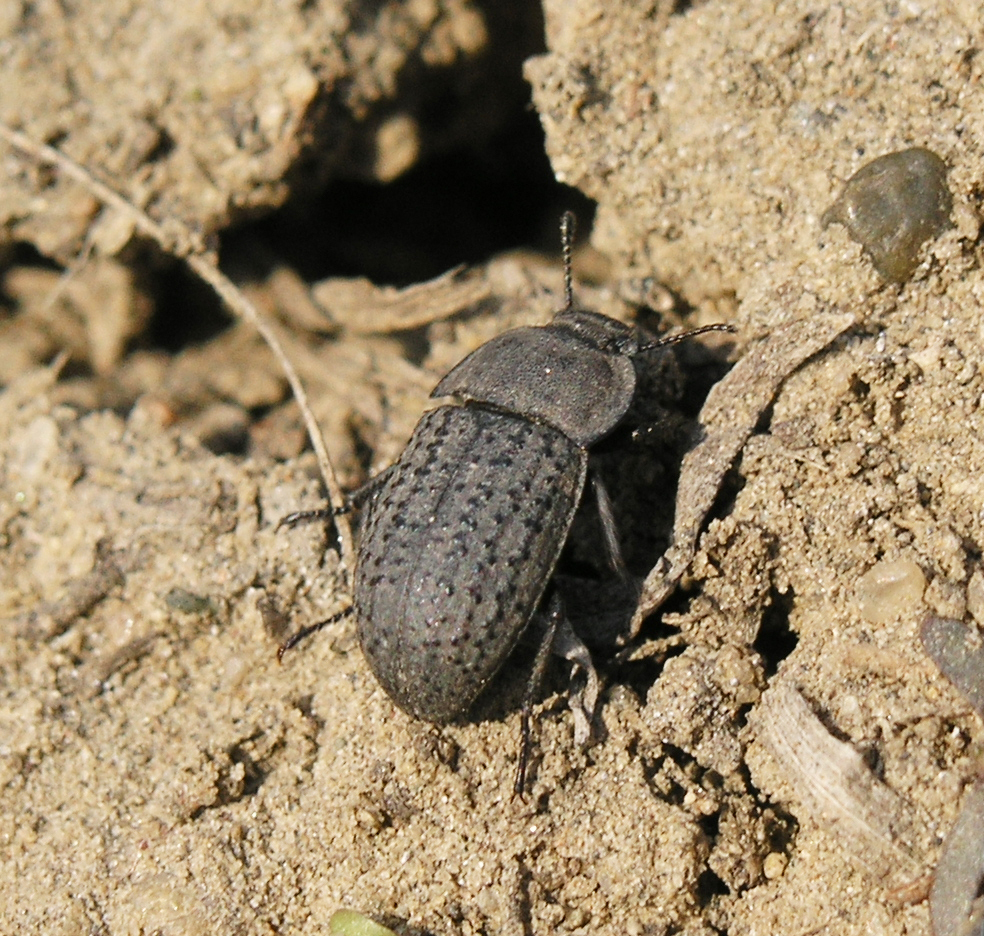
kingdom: Animalia
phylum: Arthropoda
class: Insecta
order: Coleoptera
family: Tenebrionidae
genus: Opatrum
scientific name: Opatrum sabulosum
